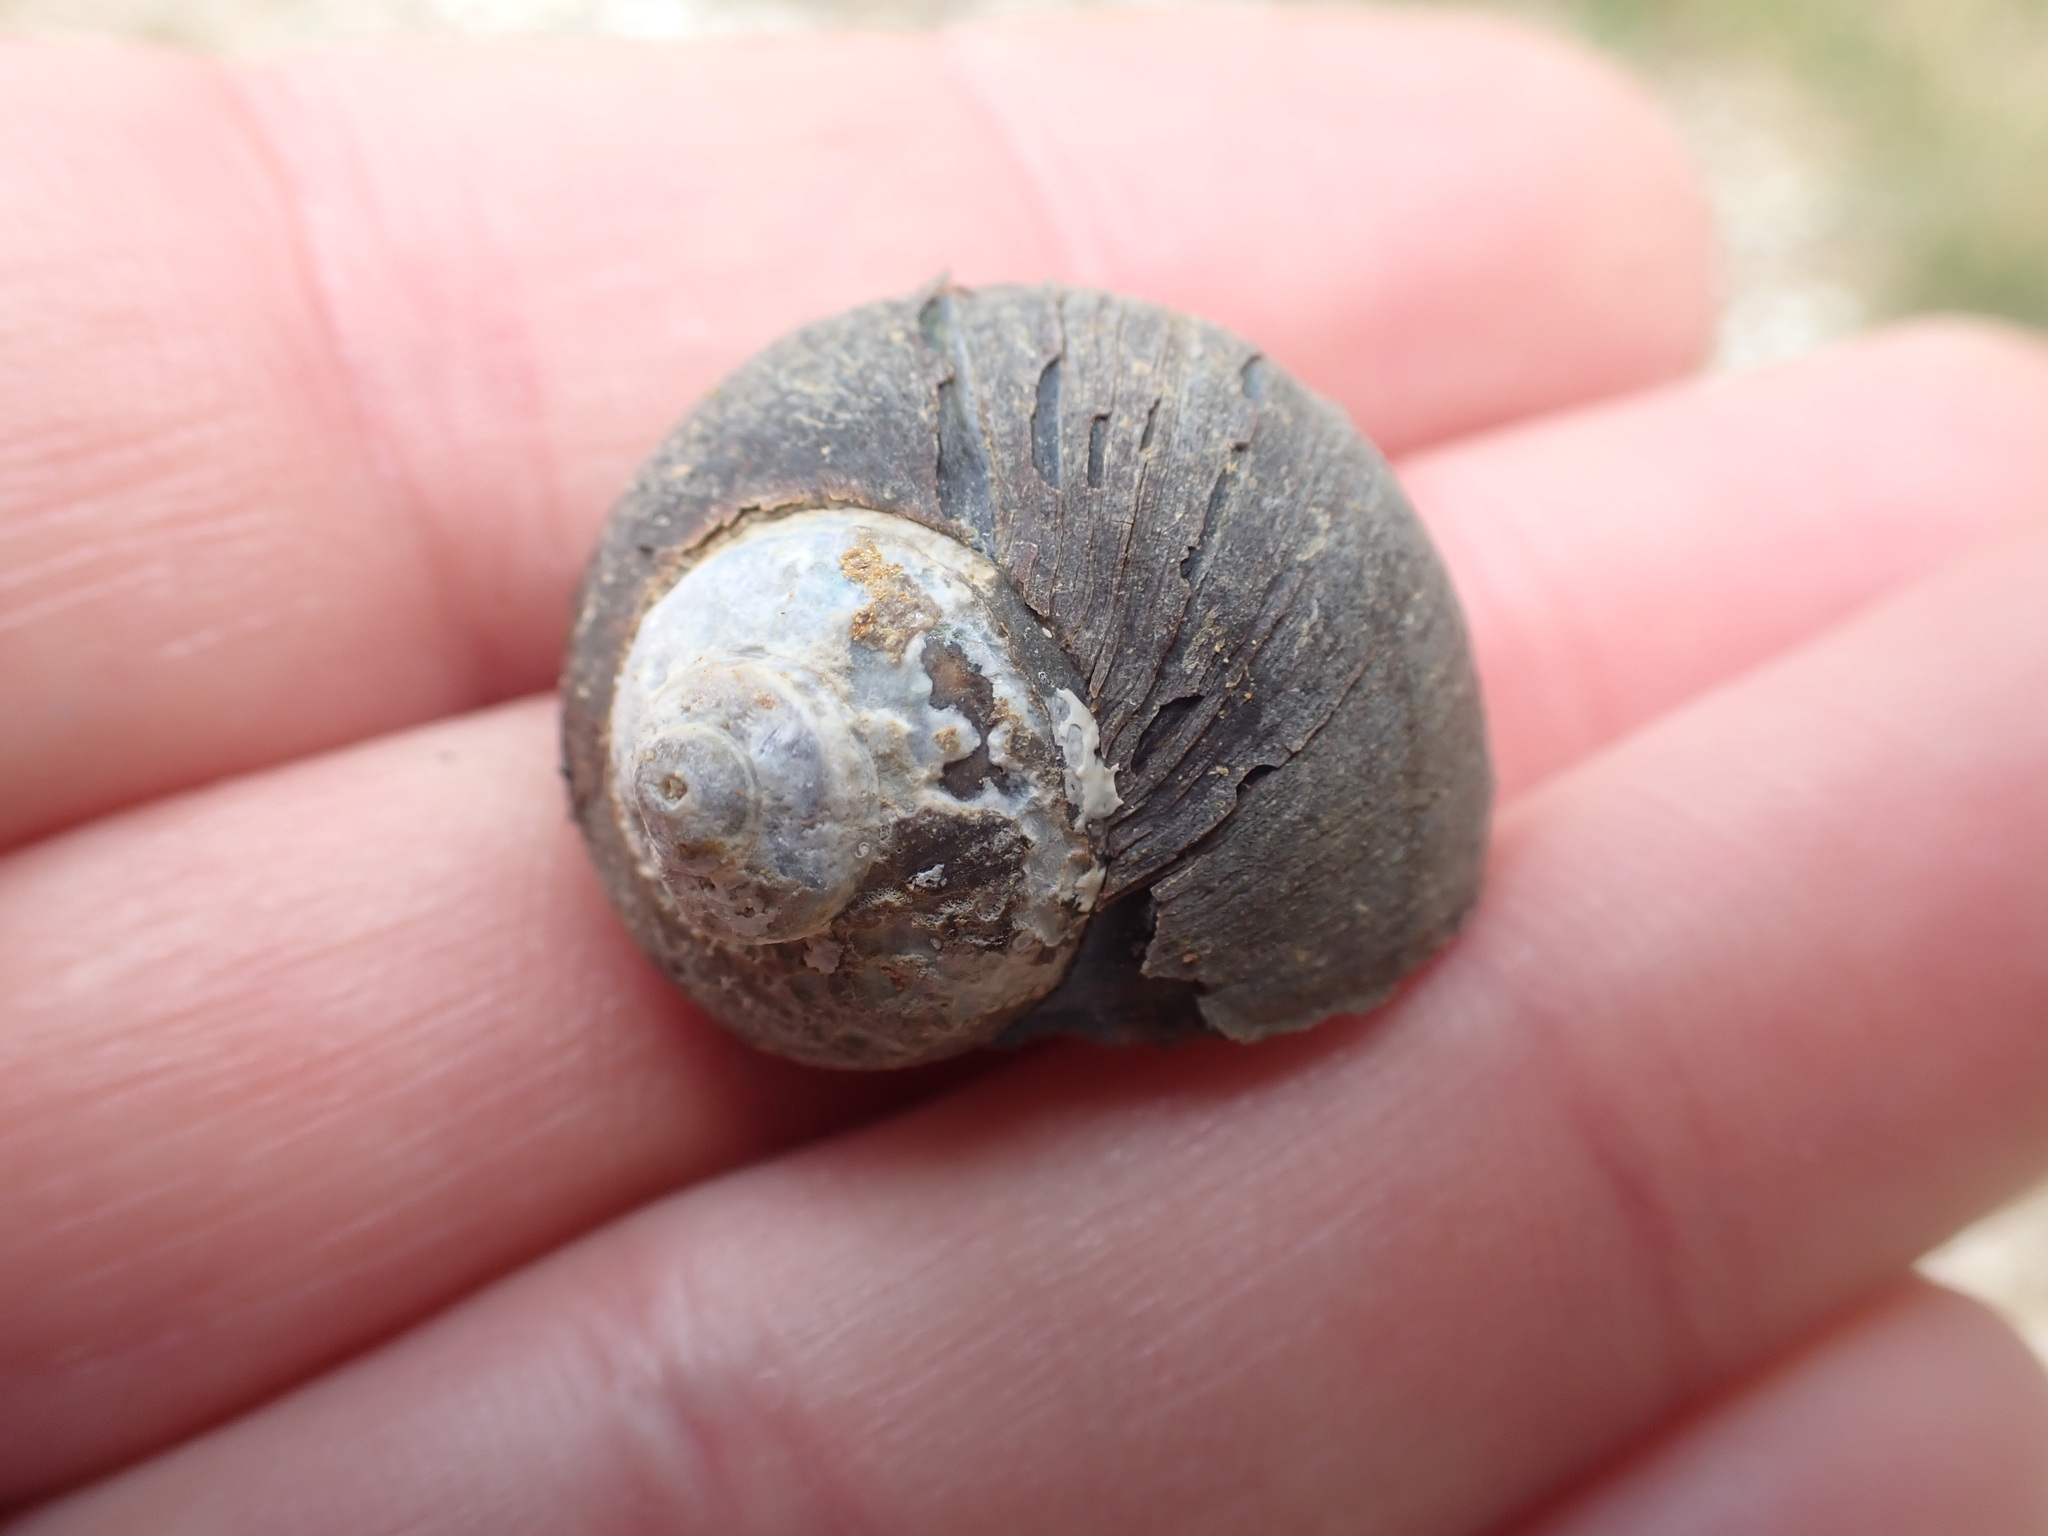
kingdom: Animalia
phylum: Mollusca
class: Gastropoda
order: Trochida
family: Turbinidae
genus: Lunella
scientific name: Lunella smaragda
